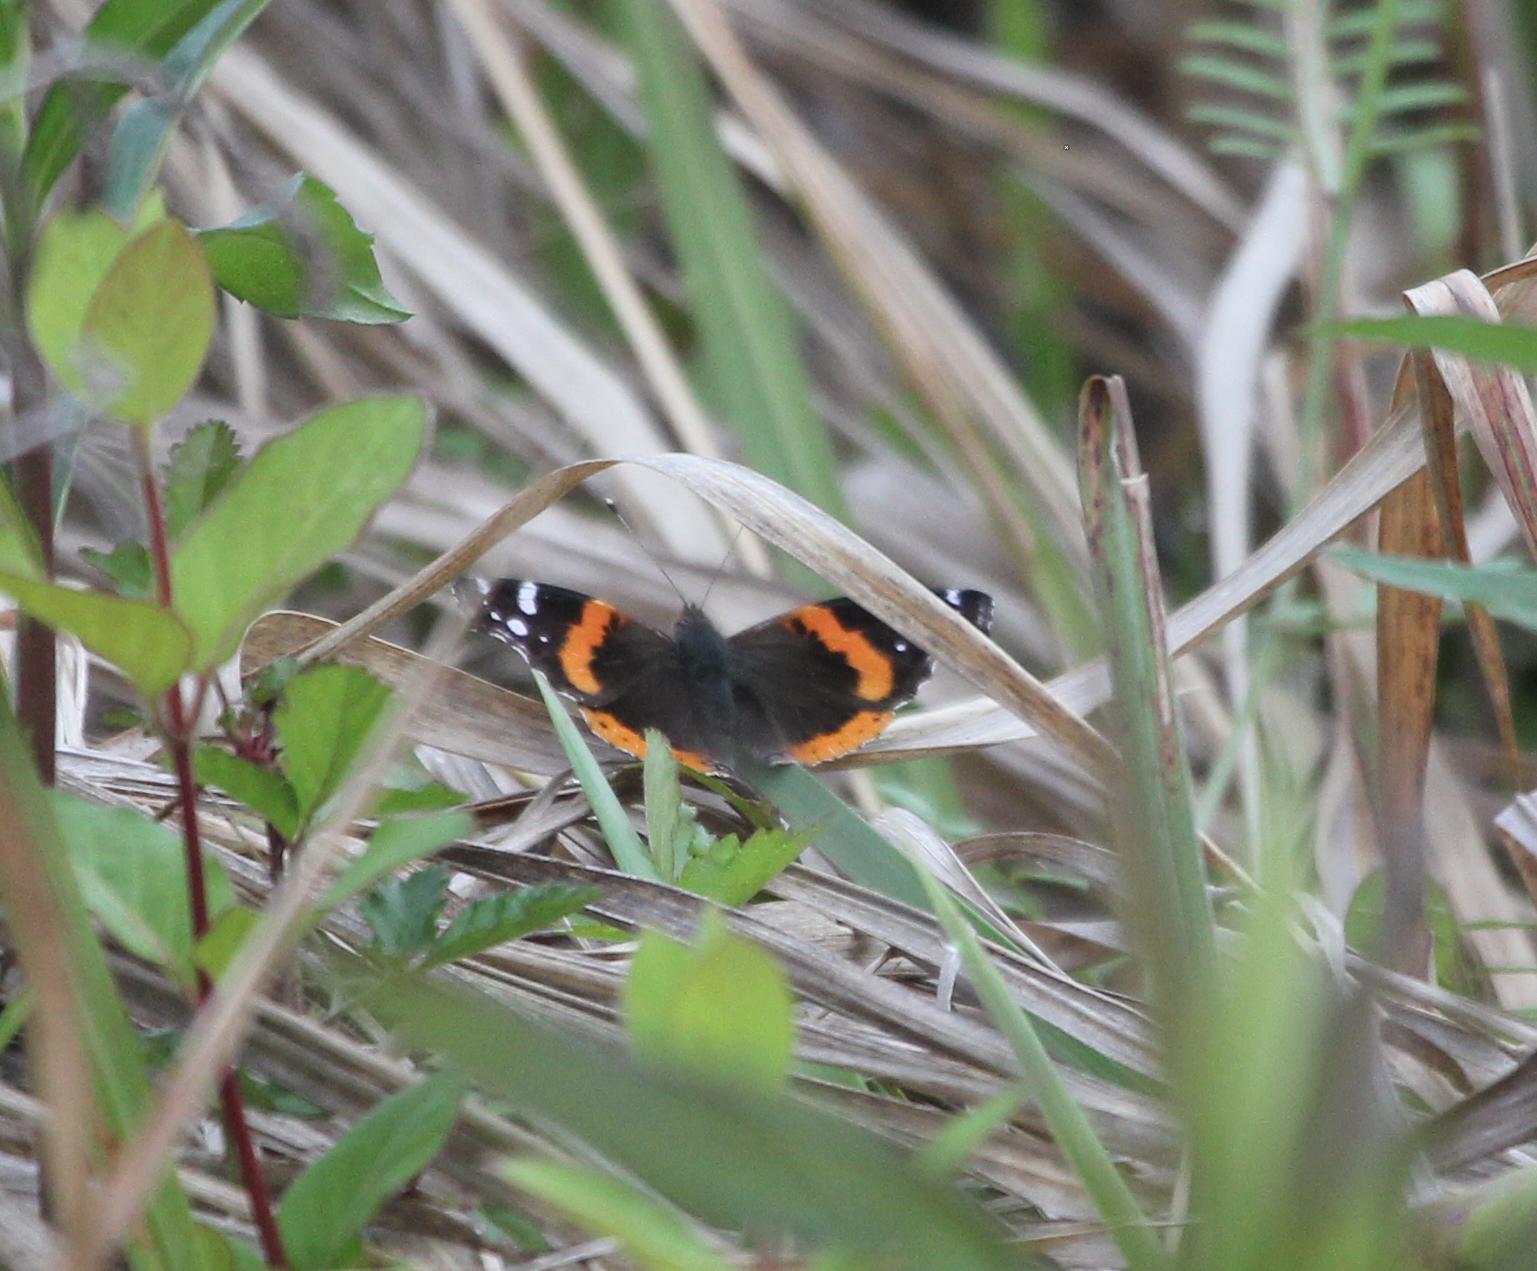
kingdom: Animalia
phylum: Arthropoda
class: Insecta
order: Lepidoptera
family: Nymphalidae
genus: Vanessa
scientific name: Vanessa atalanta
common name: Red admiral
